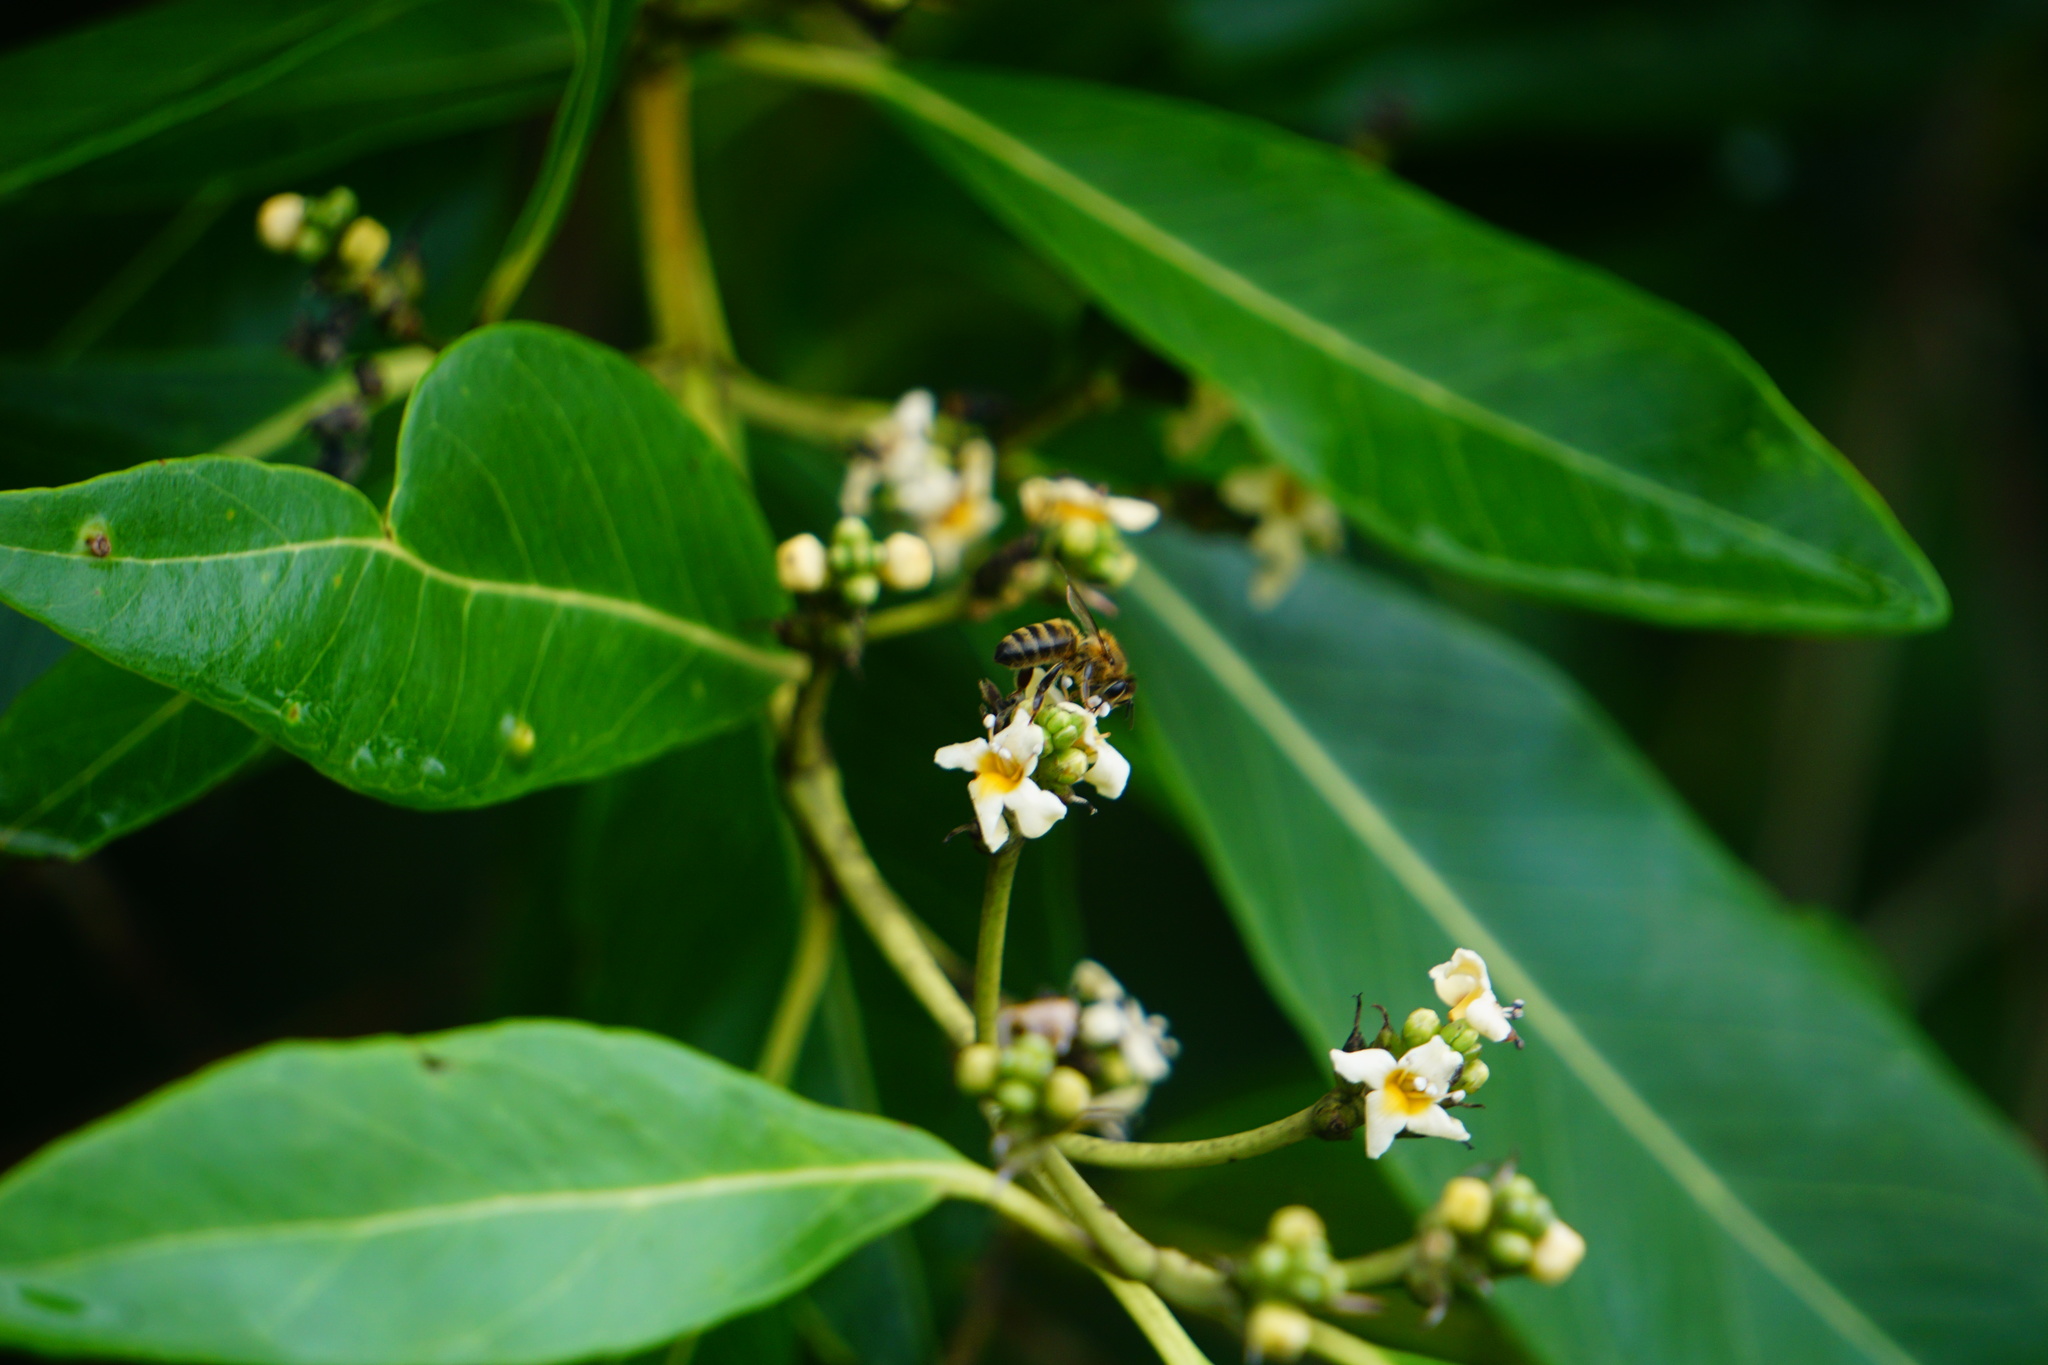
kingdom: Animalia
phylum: Arthropoda
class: Insecta
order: Hymenoptera
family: Apidae
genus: Apis
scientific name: Apis mellifera
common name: Honey bee
